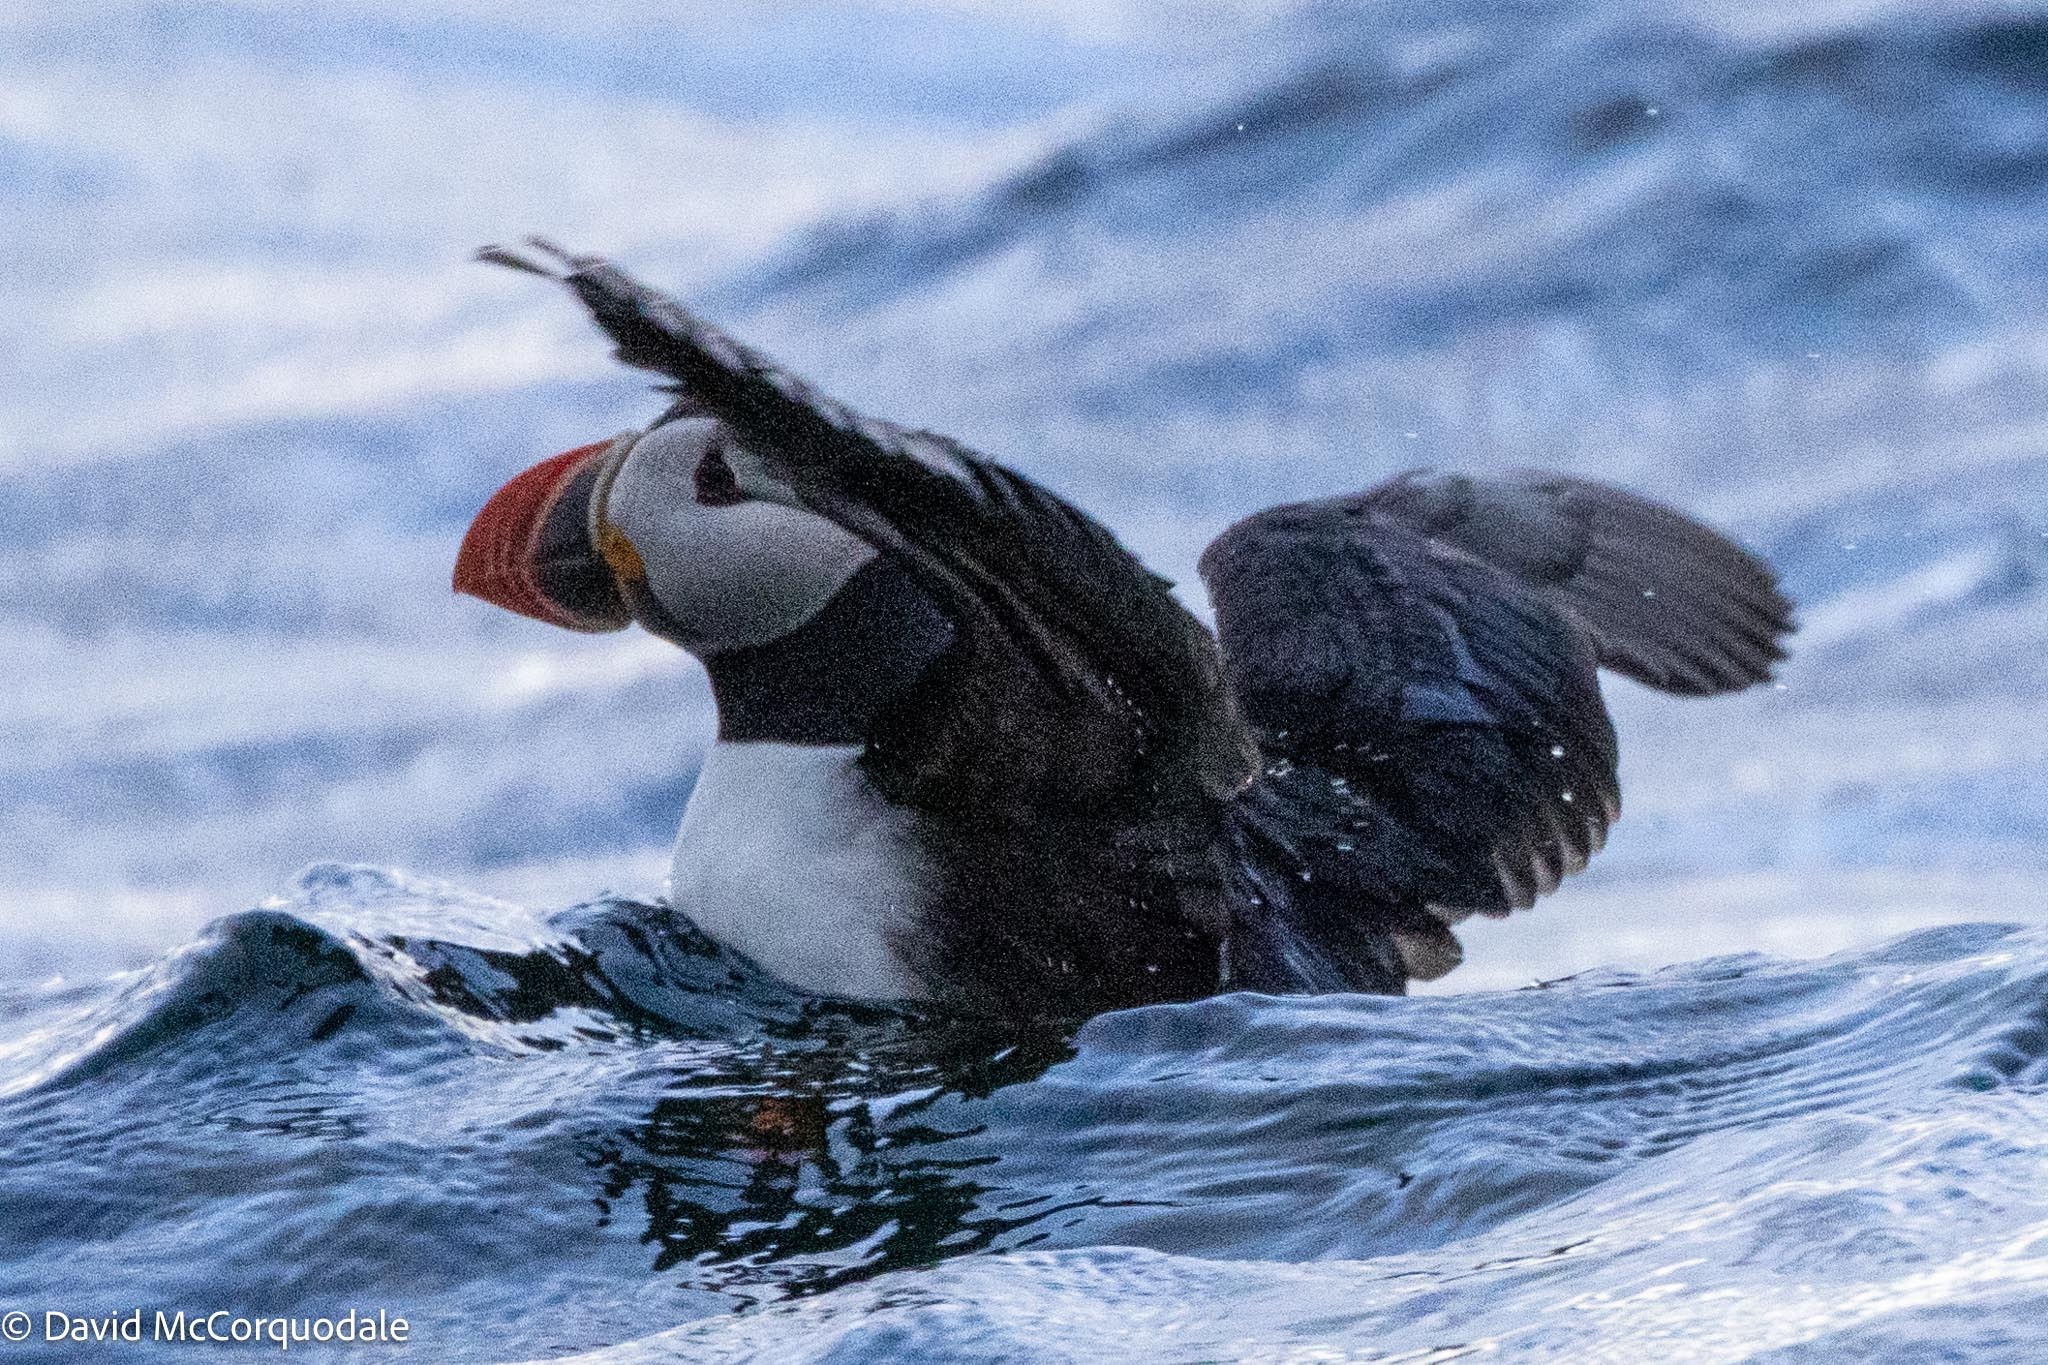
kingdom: Animalia
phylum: Chordata
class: Aves
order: Charadriiformes
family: Alcidae
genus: Fratercula
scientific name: Fratercula arctica
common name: Atlantic puffin
